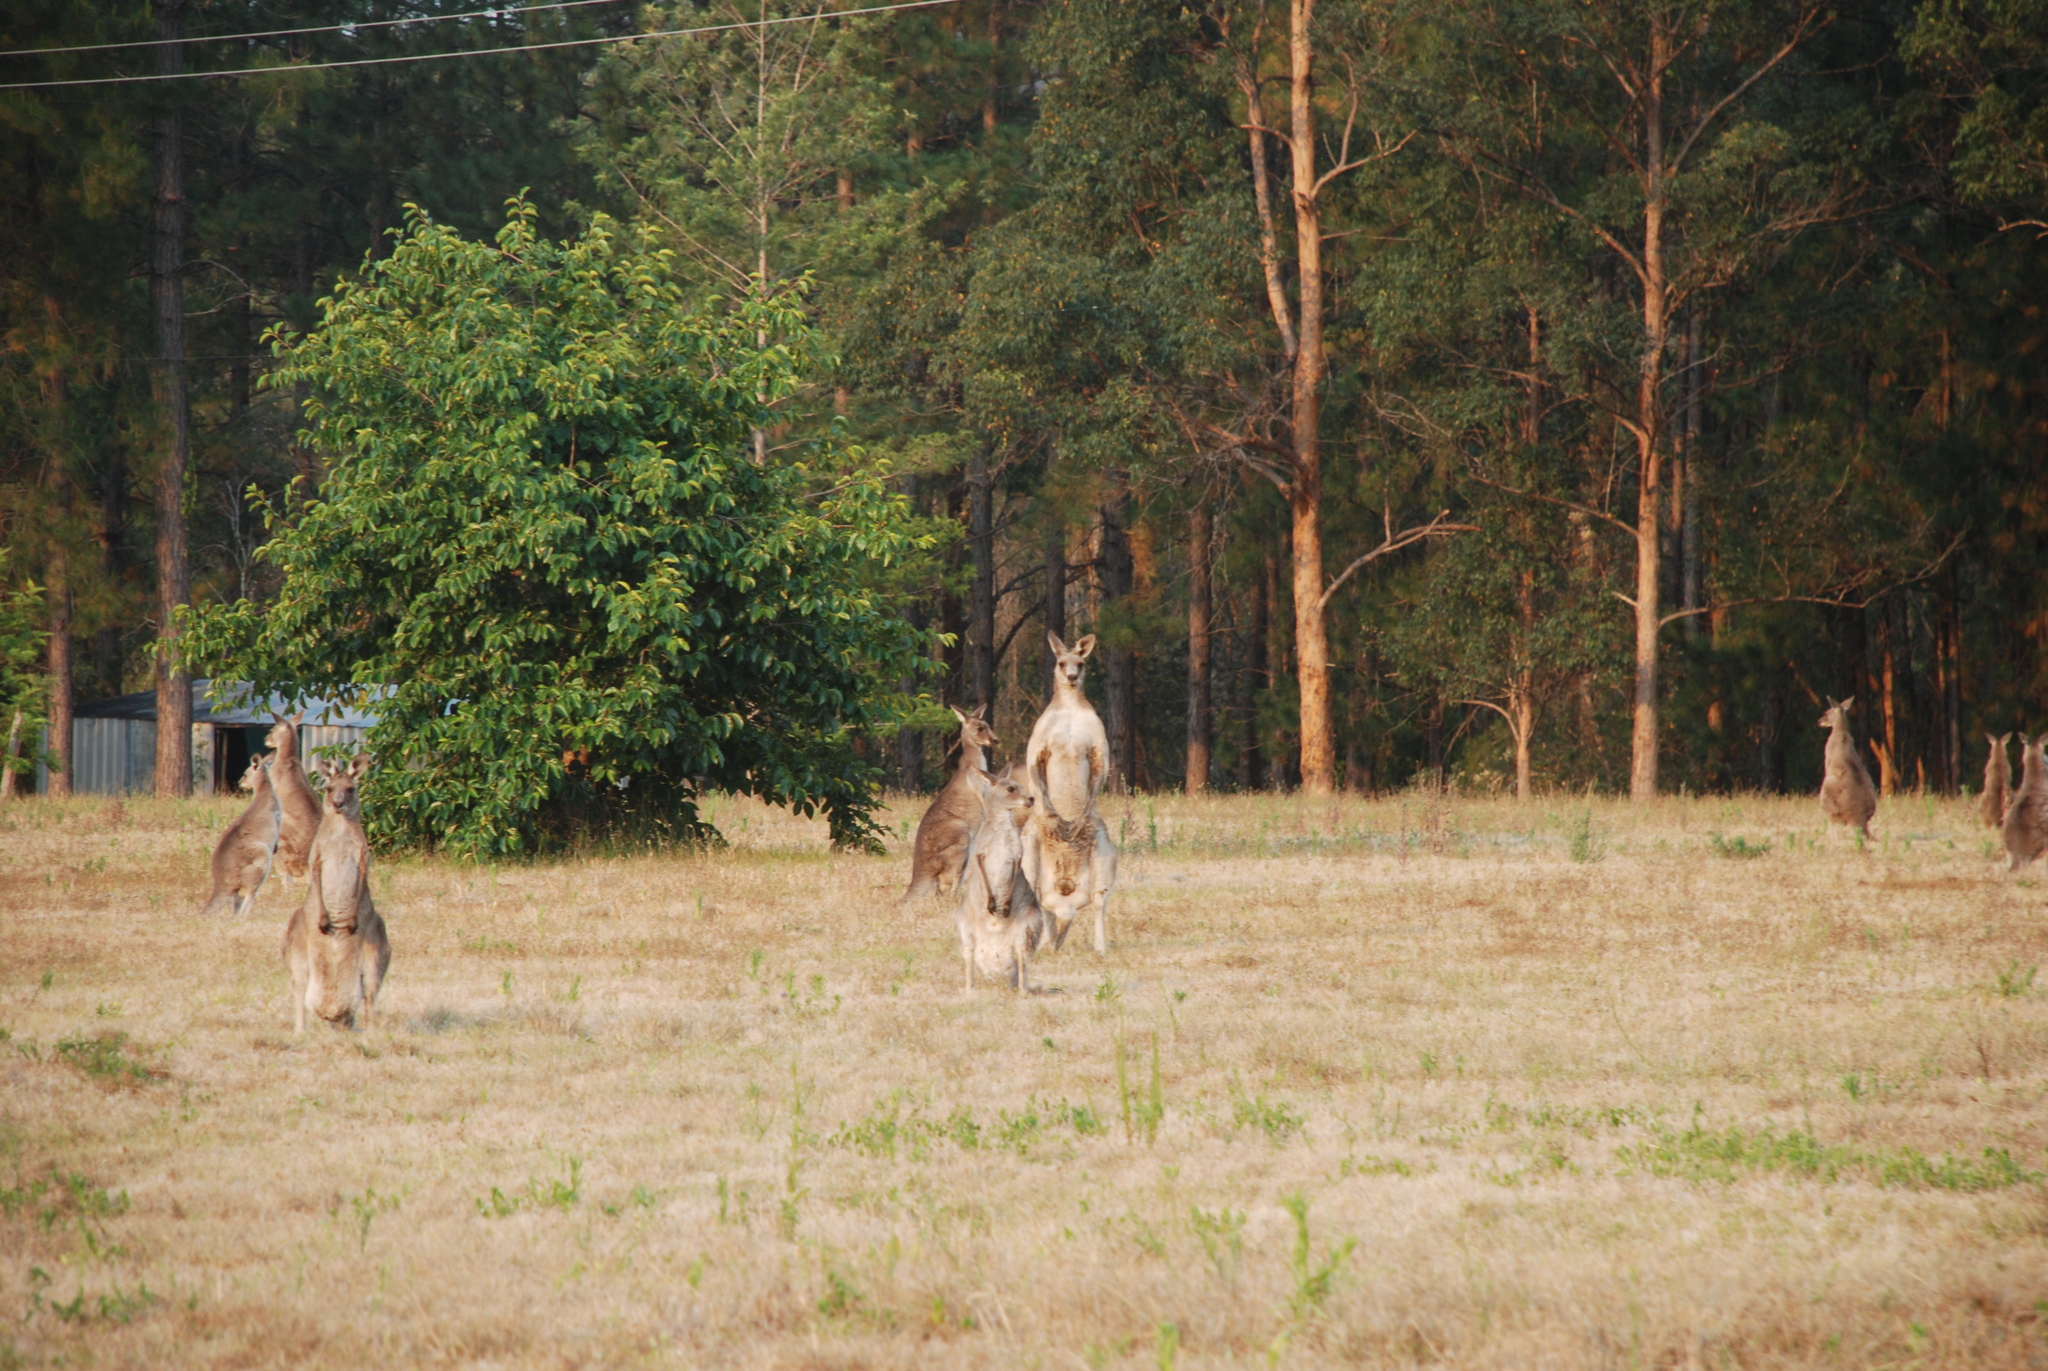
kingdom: Animalia
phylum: Chordata
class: Mammalia
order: Diprotodontia
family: Macropodidae
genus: Macropus
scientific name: Macropus giganteus
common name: Eastern grey kangaroo
